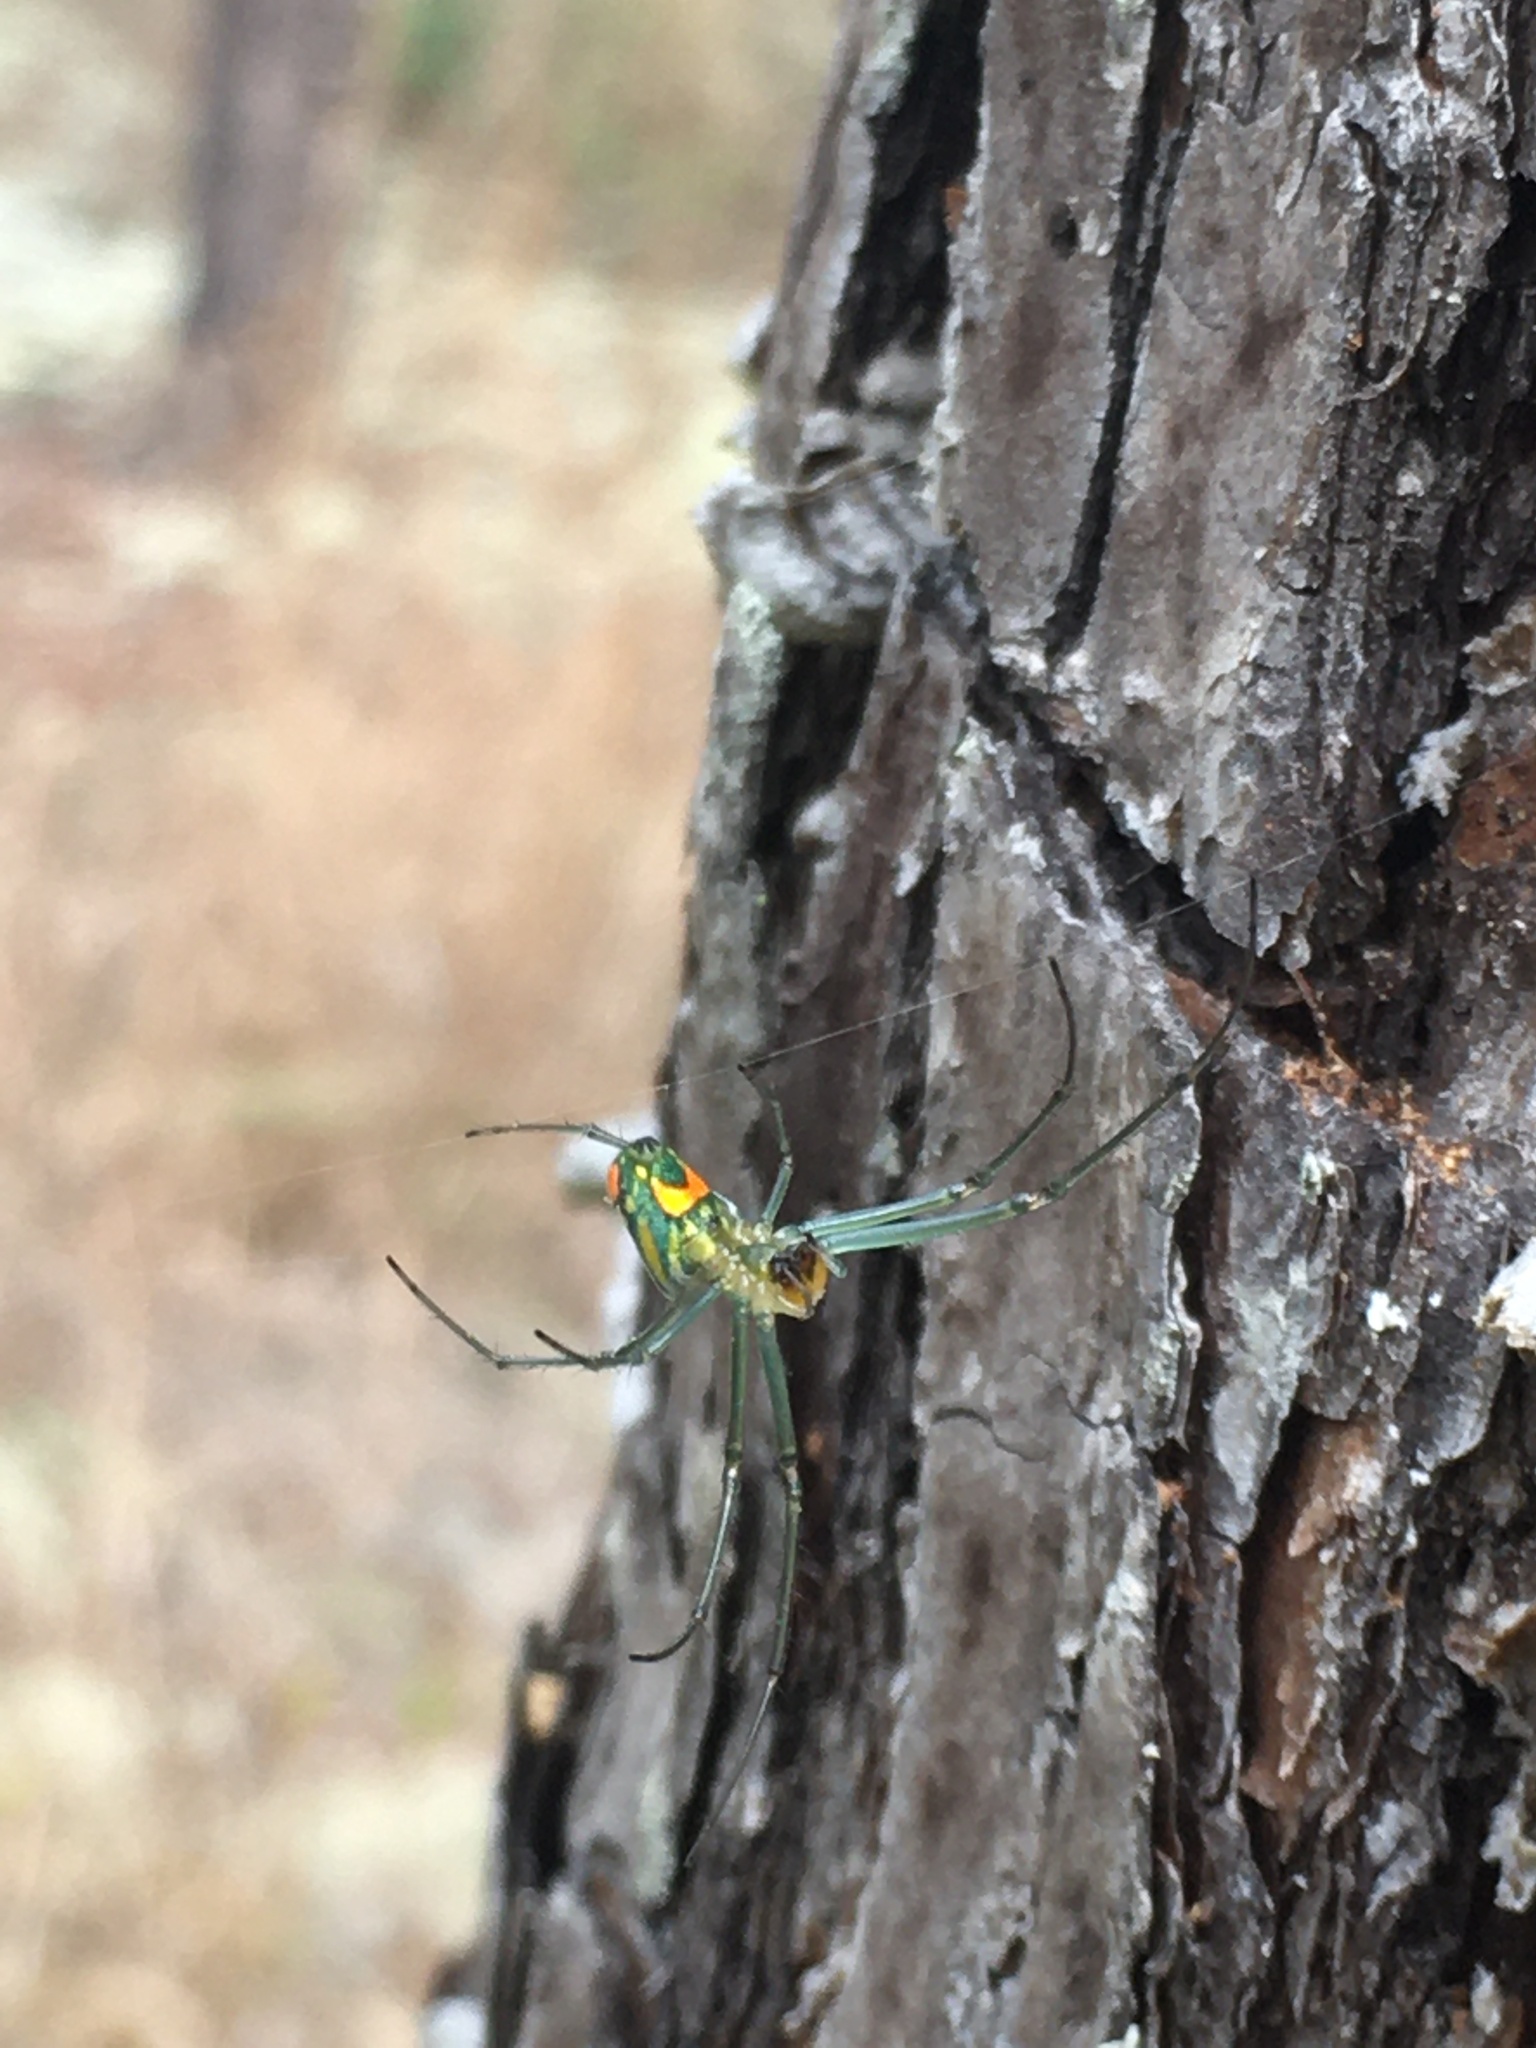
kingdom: Animalia
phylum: Arthropoda
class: Arachnida
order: Araneae
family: Tetragnathidae
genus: Leucauge
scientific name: Leucauge argyrobapta
